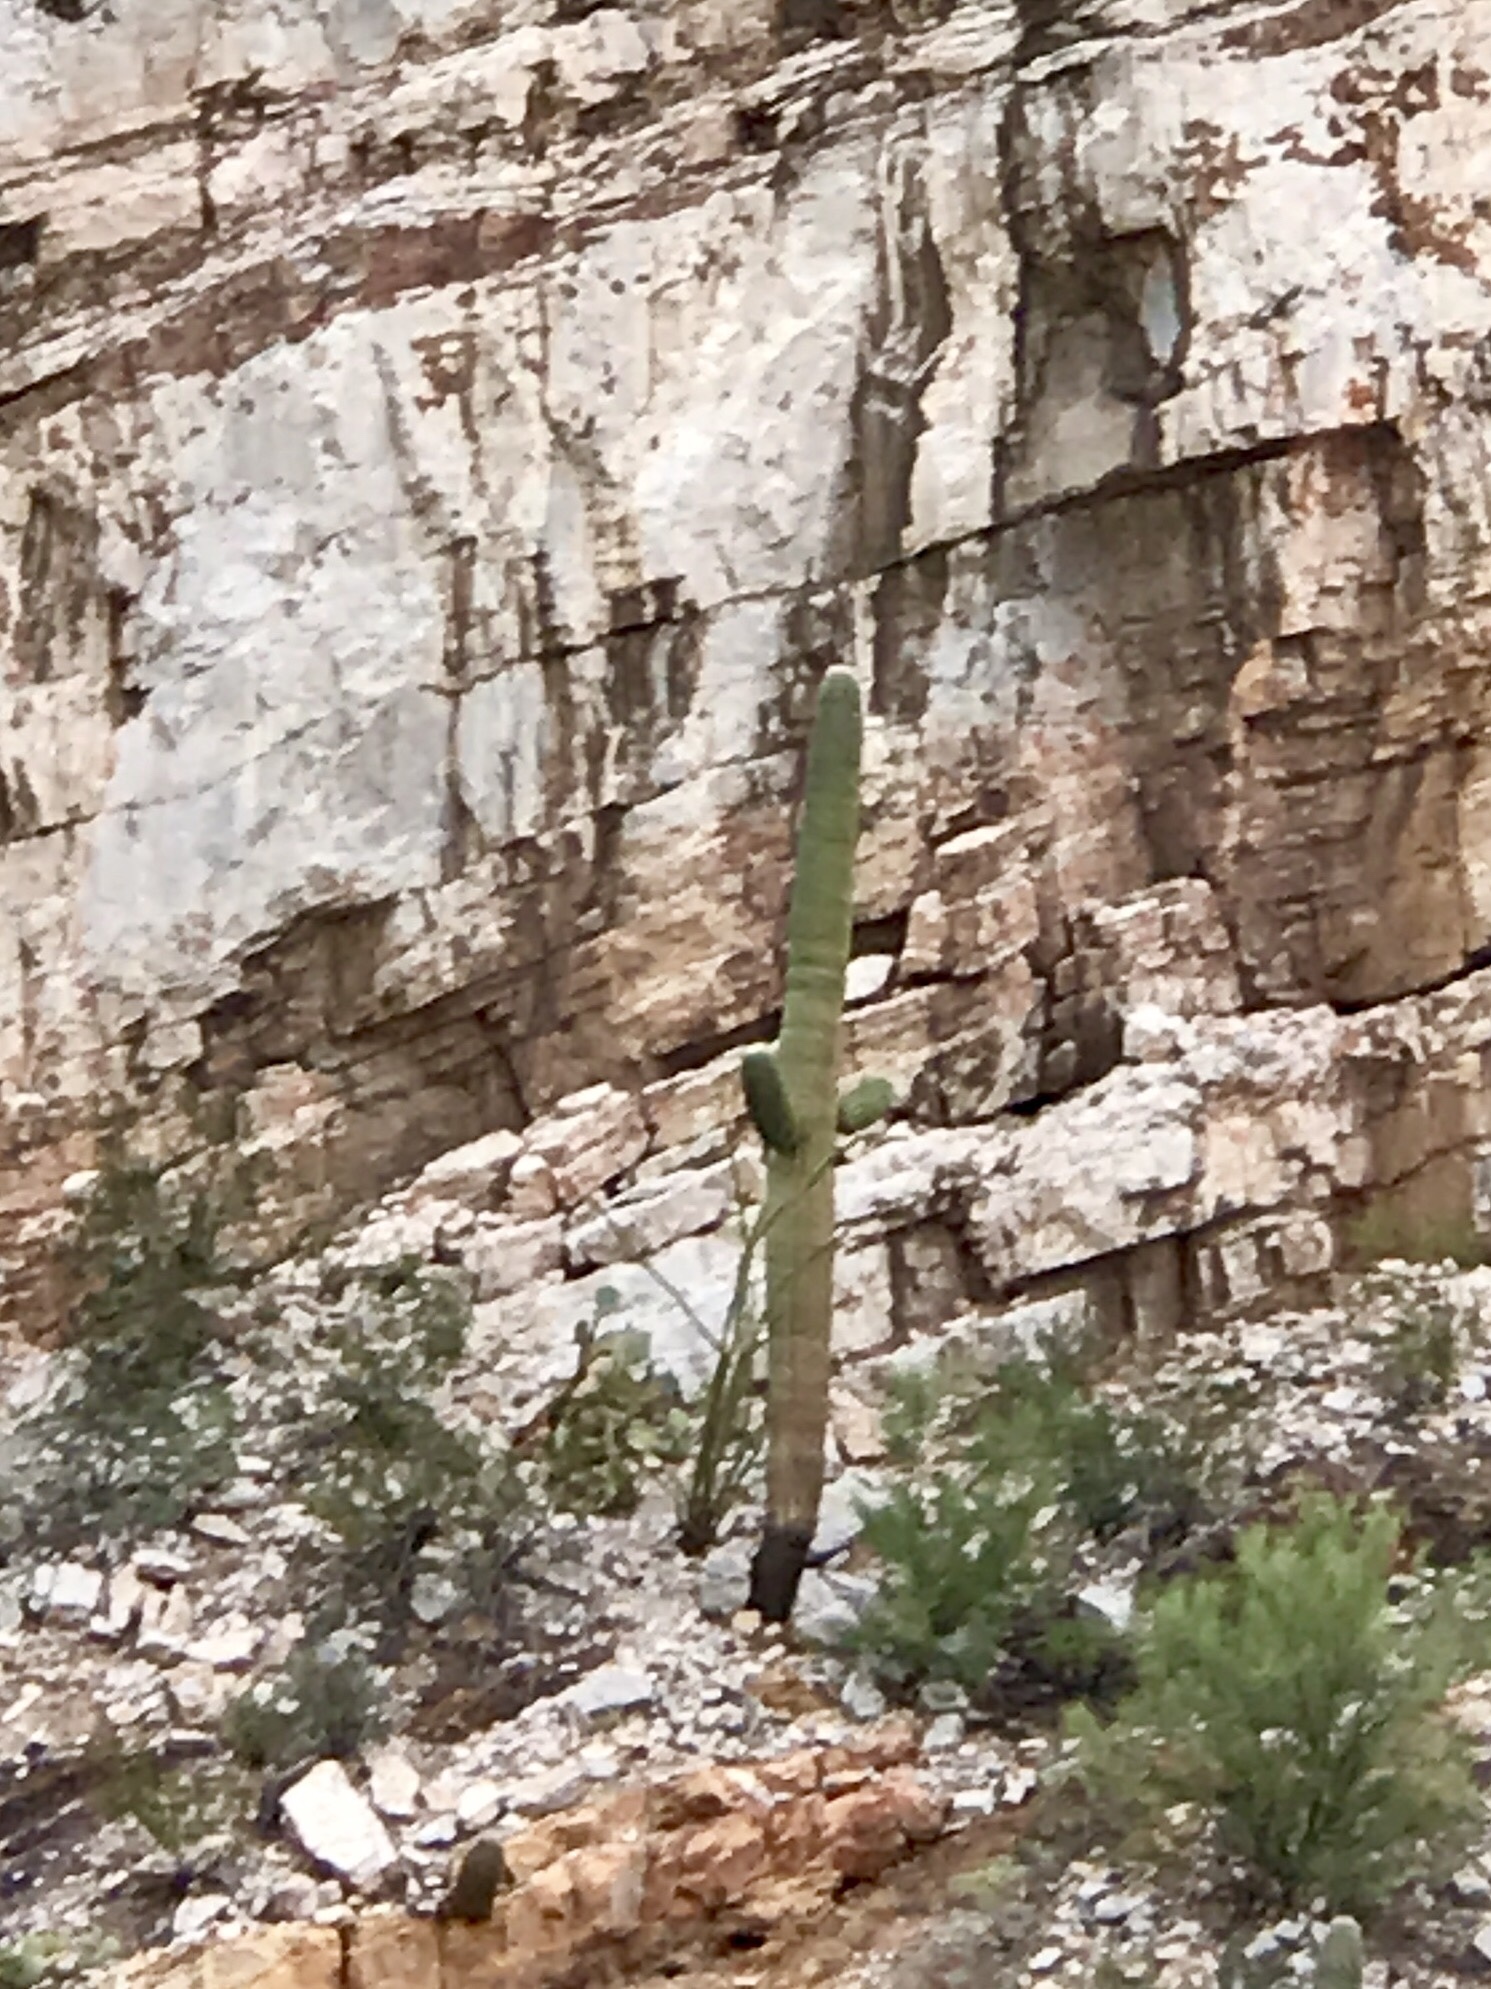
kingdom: Plantae
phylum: Tracheophyta
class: Magnoliopsida
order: Caryophyllales
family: Cactaceae
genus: Carnegiea
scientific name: Carnegiea gigantea
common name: Saguaro
